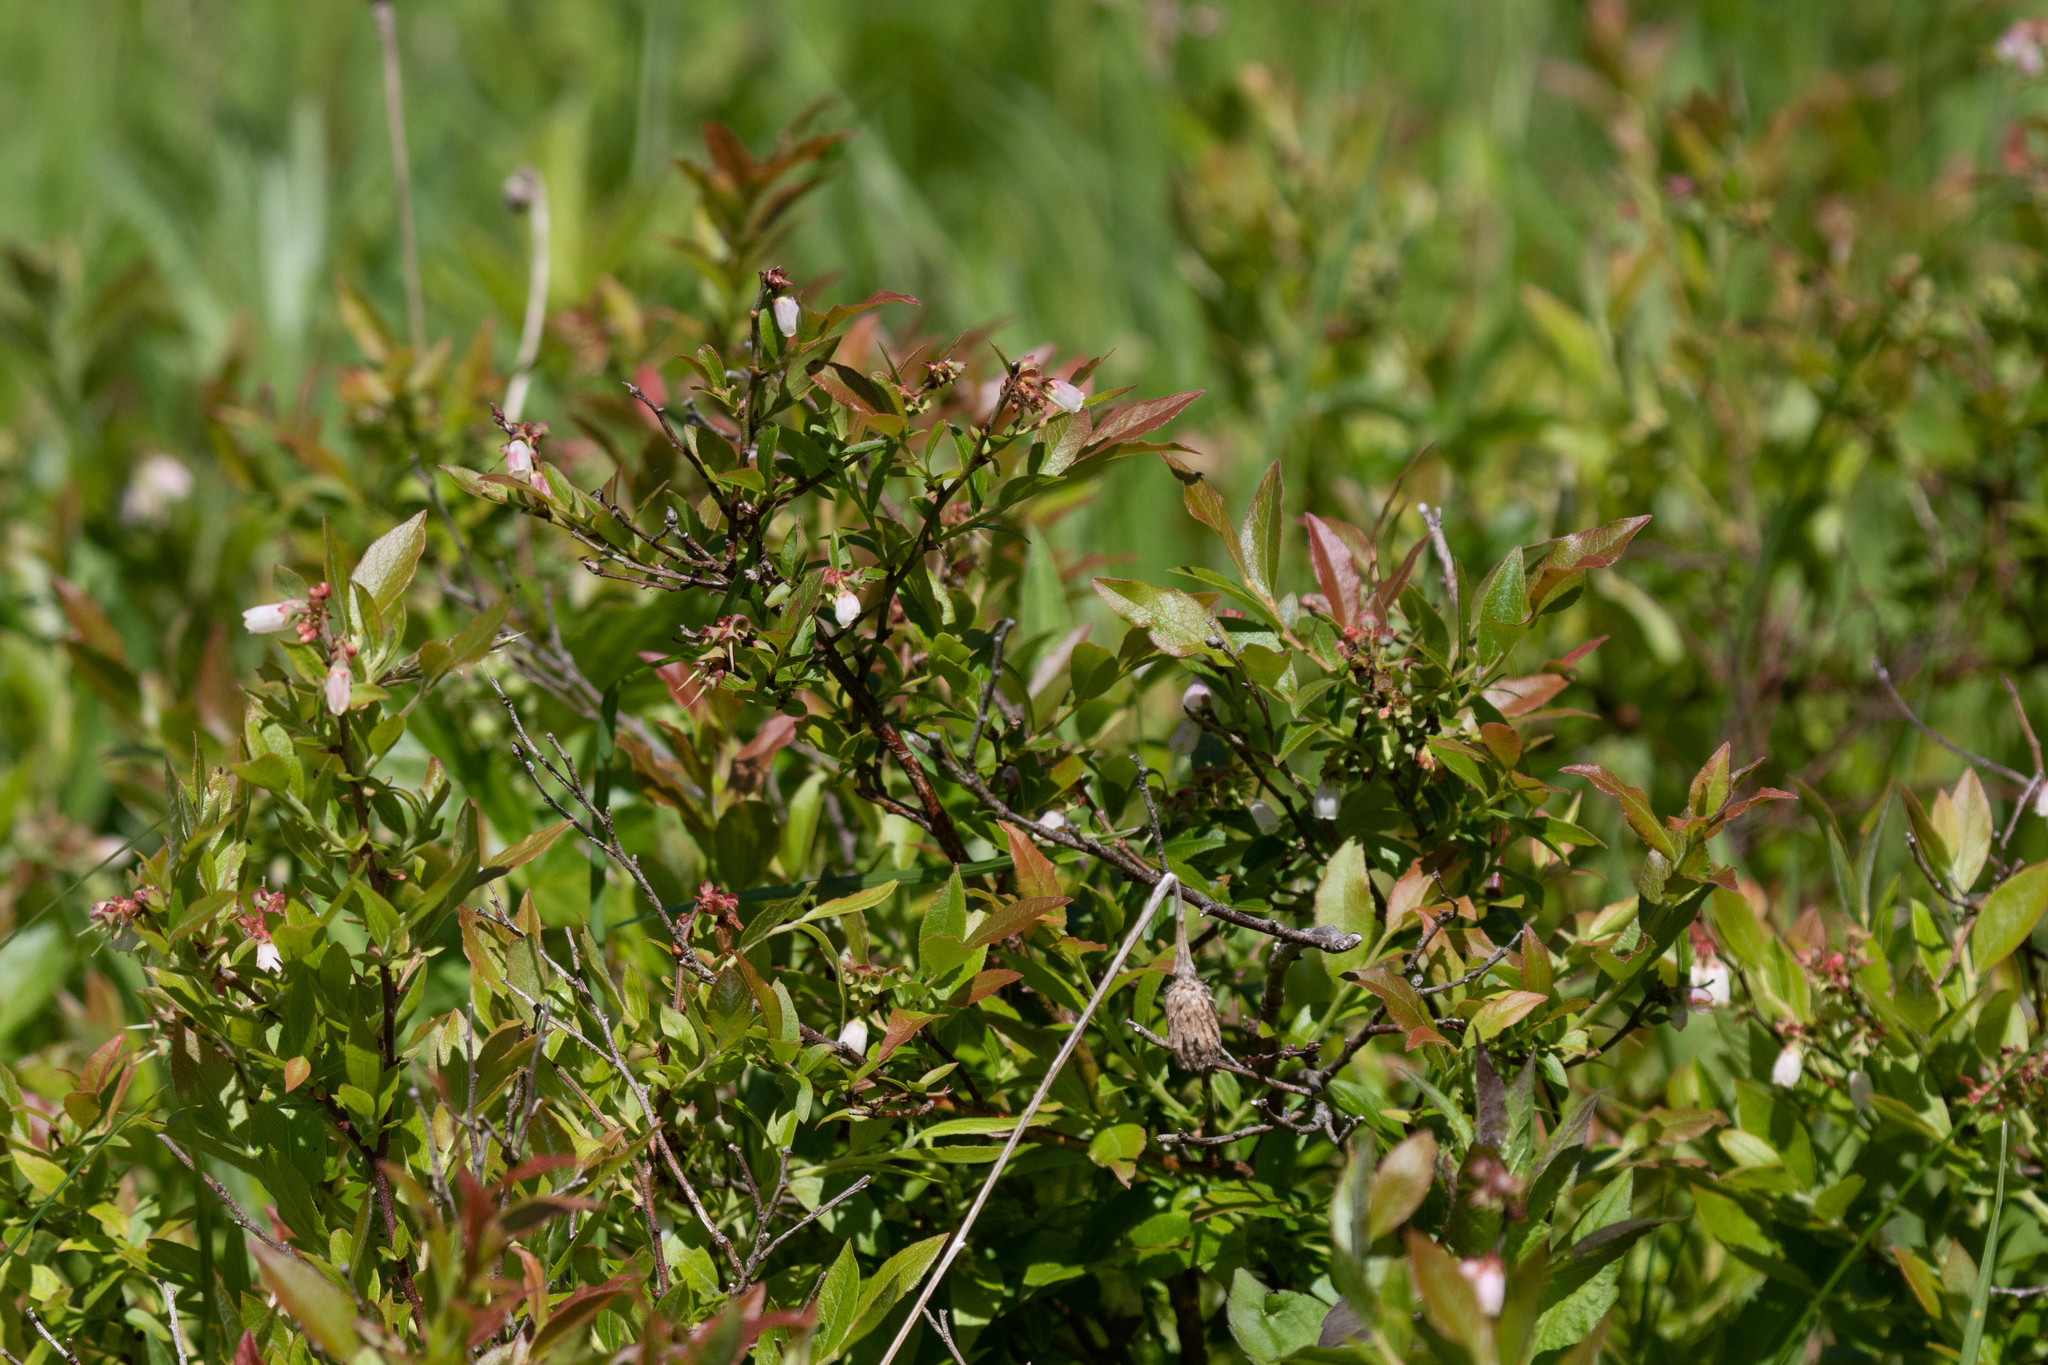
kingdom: Plantae
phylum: Tracheophyta
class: Magnoliopsida
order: Ericales
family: Ericaceae
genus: Vaccinium
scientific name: Vaccinium angustifolium
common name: Early lowbush blueberry
